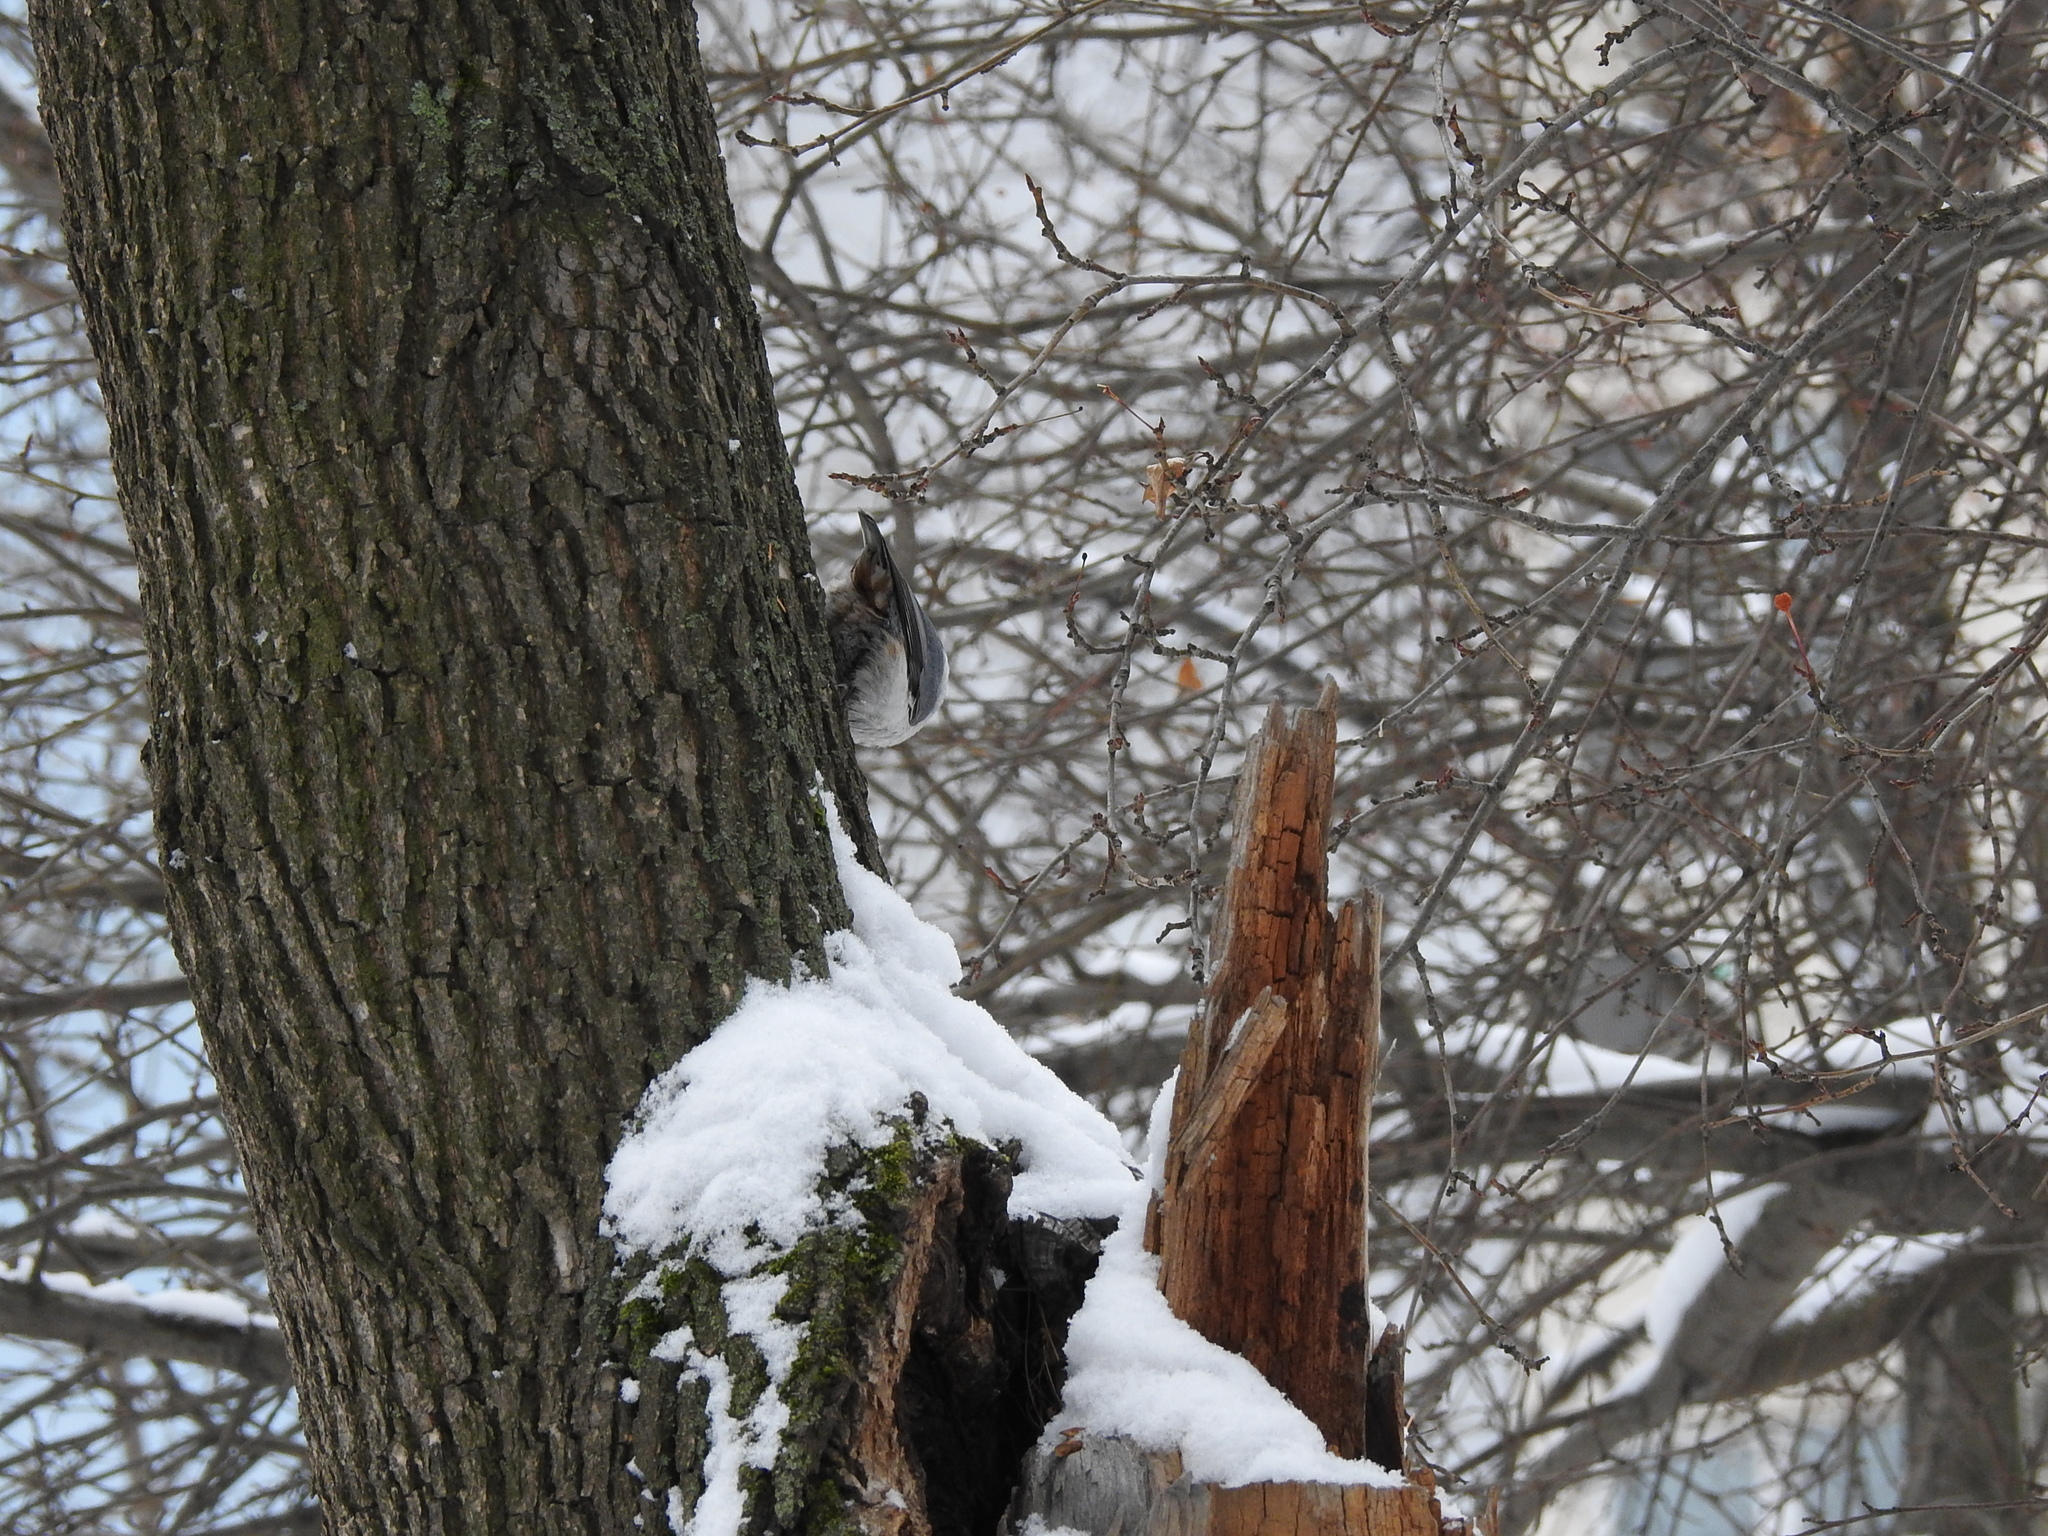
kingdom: Animalia
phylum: Chordata
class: Aves
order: Passeriformes
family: Sittidae
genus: Sitta
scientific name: Sitta europaea
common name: Eurasian nuthatch
